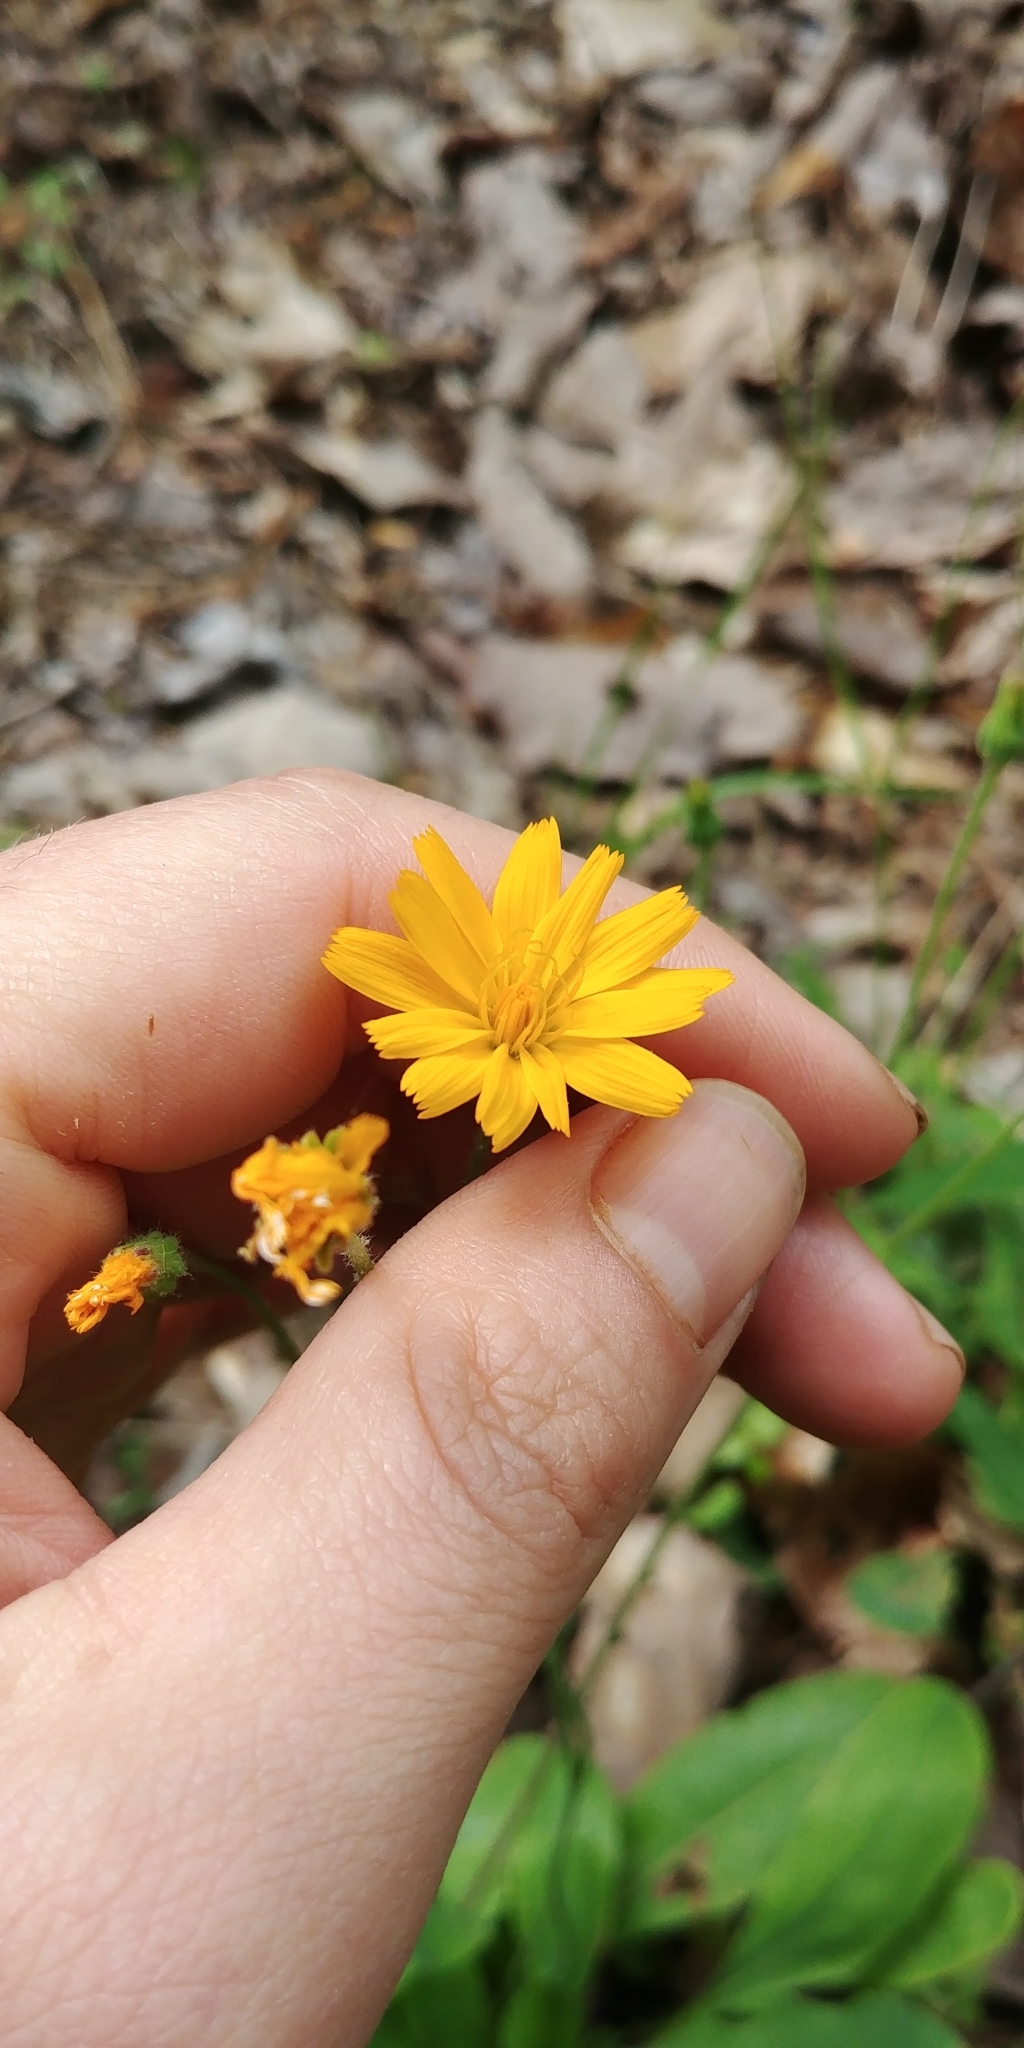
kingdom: Plantae
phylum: Tracheophyta
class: Magnoliopsida
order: Asterales
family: Asteraceae
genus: Krigia
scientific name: Krigia biflora
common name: Orange dwarf-dandelion
